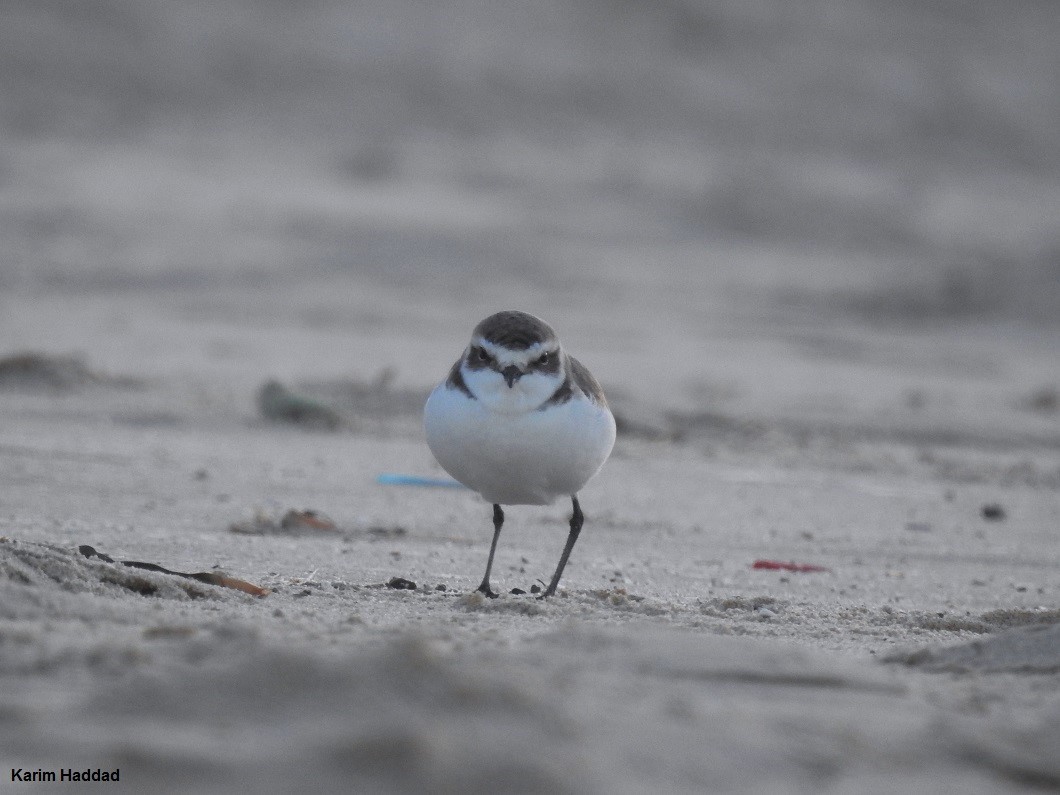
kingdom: Animalia
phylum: Chordata
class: Aves
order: Charadriiformes
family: Charadriidae
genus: Charadrius
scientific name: Charadrius alexandrinus
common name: Kentish plover
